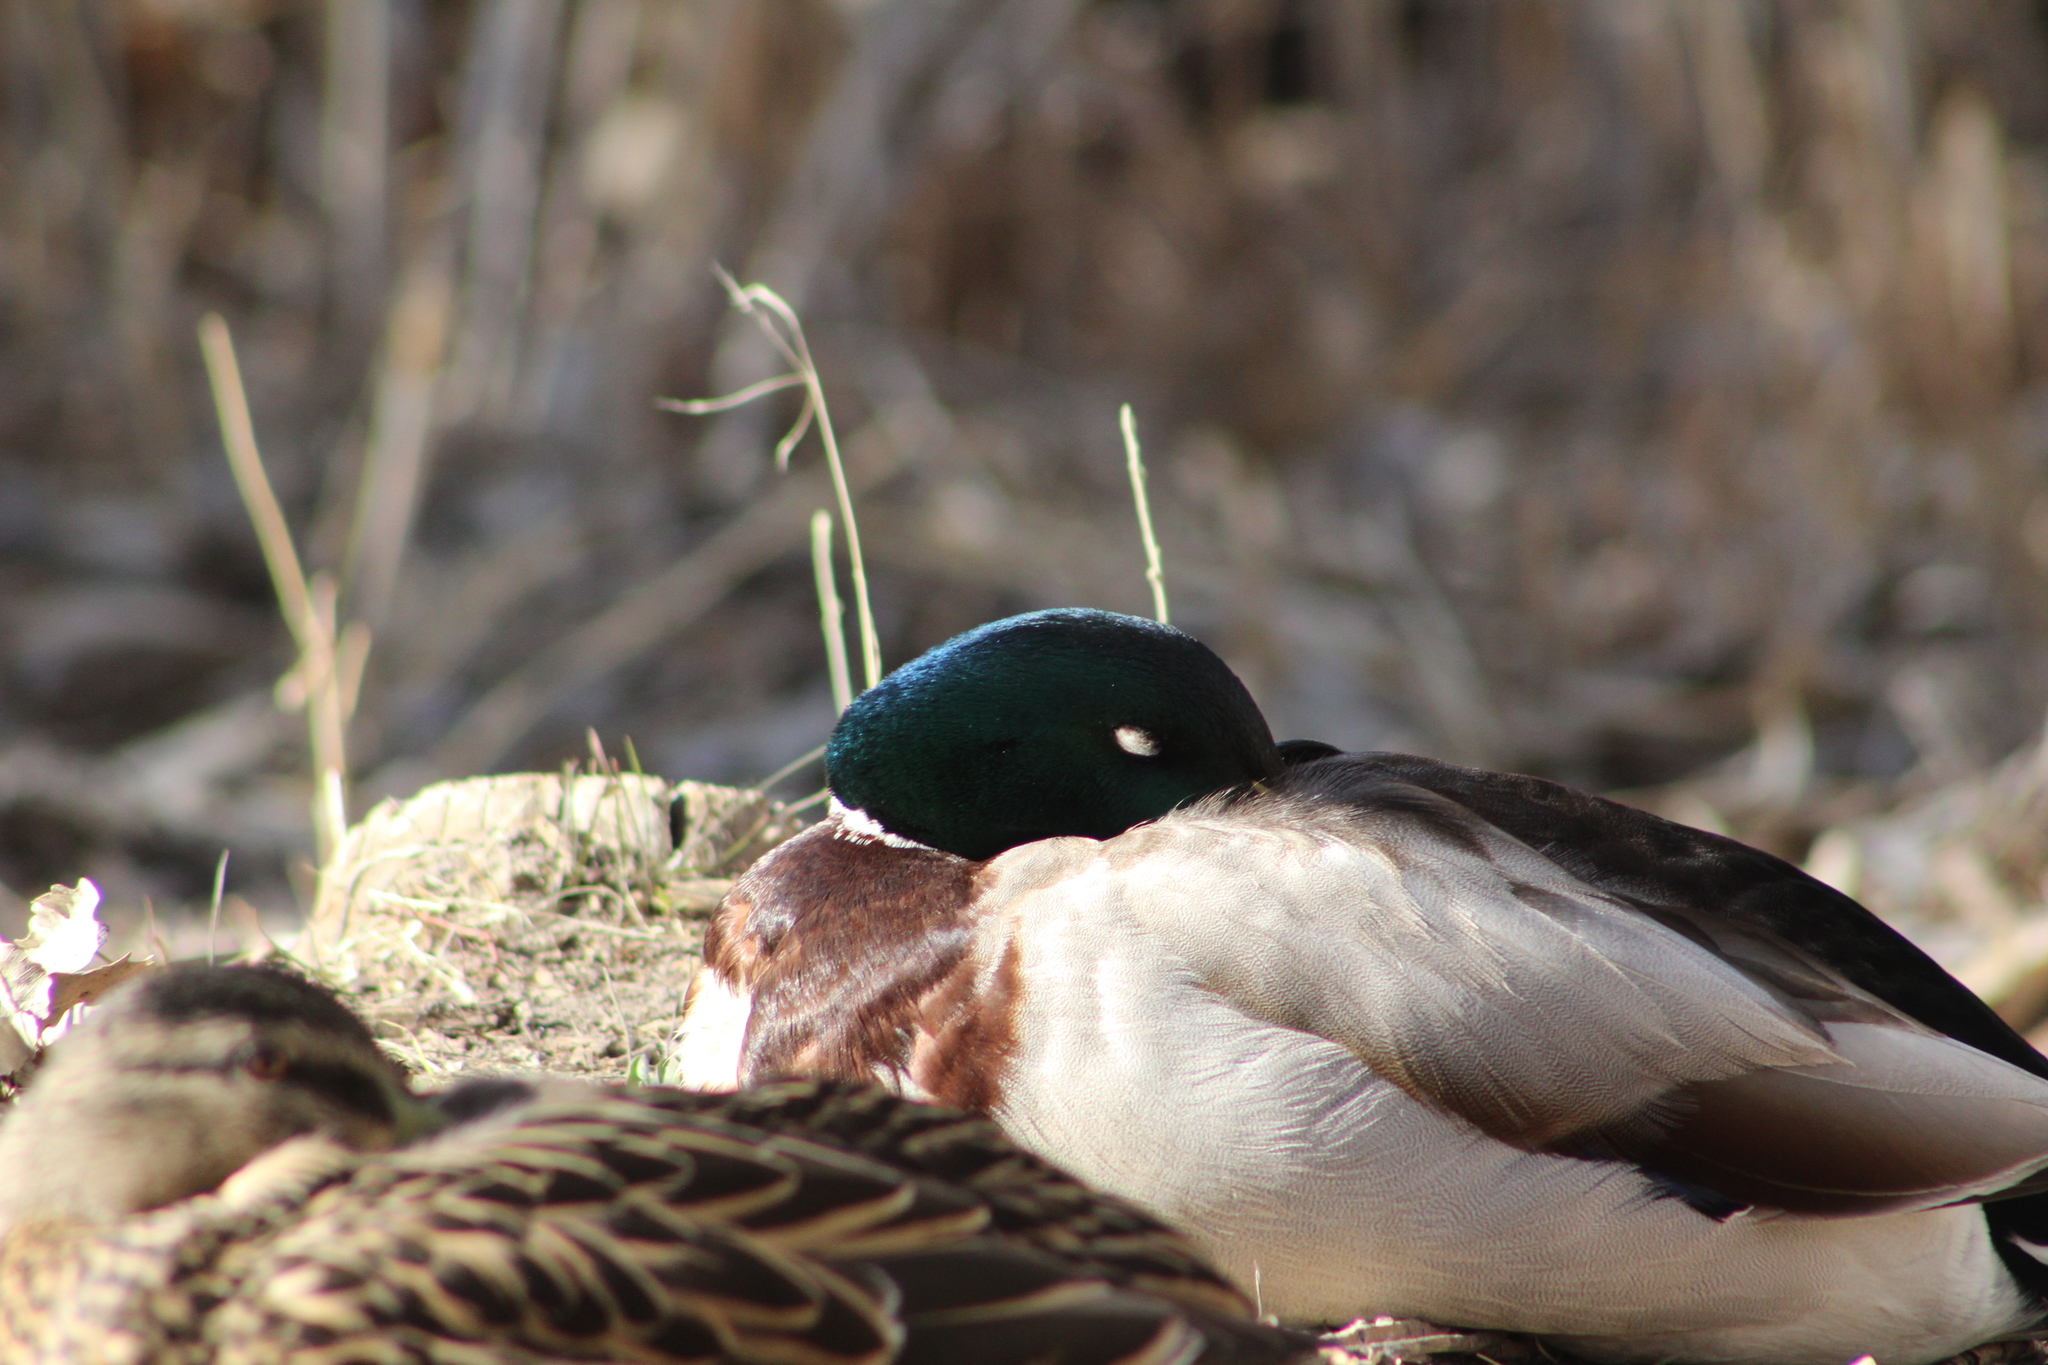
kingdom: Animalia
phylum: Chordata
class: Aves
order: Anseriformes
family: Anatidae
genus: Anas
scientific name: Anas platyrhynchos
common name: Mallard
